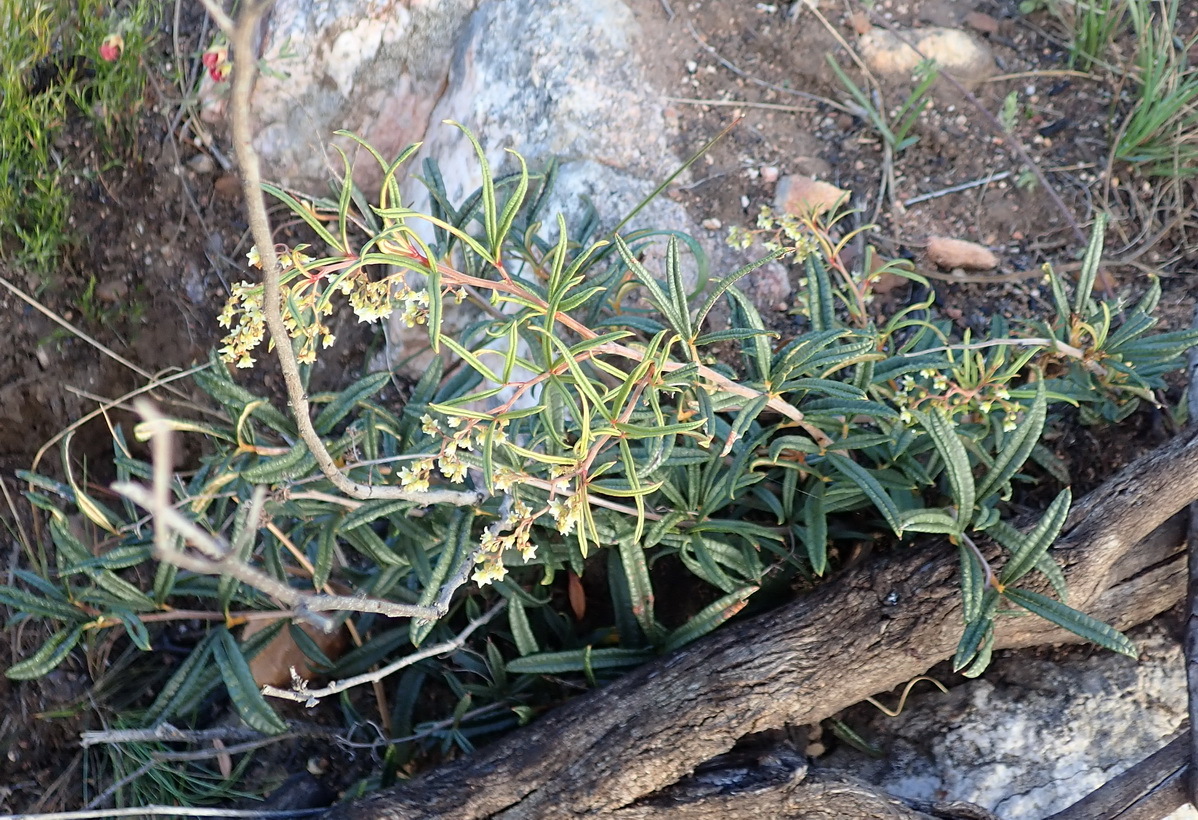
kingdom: Plantae
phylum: Tracheophyta
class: Magnoliopsida
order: Sapindales
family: Anacardiaceae
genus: Searsia
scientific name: Searsia rosmarinifolia
